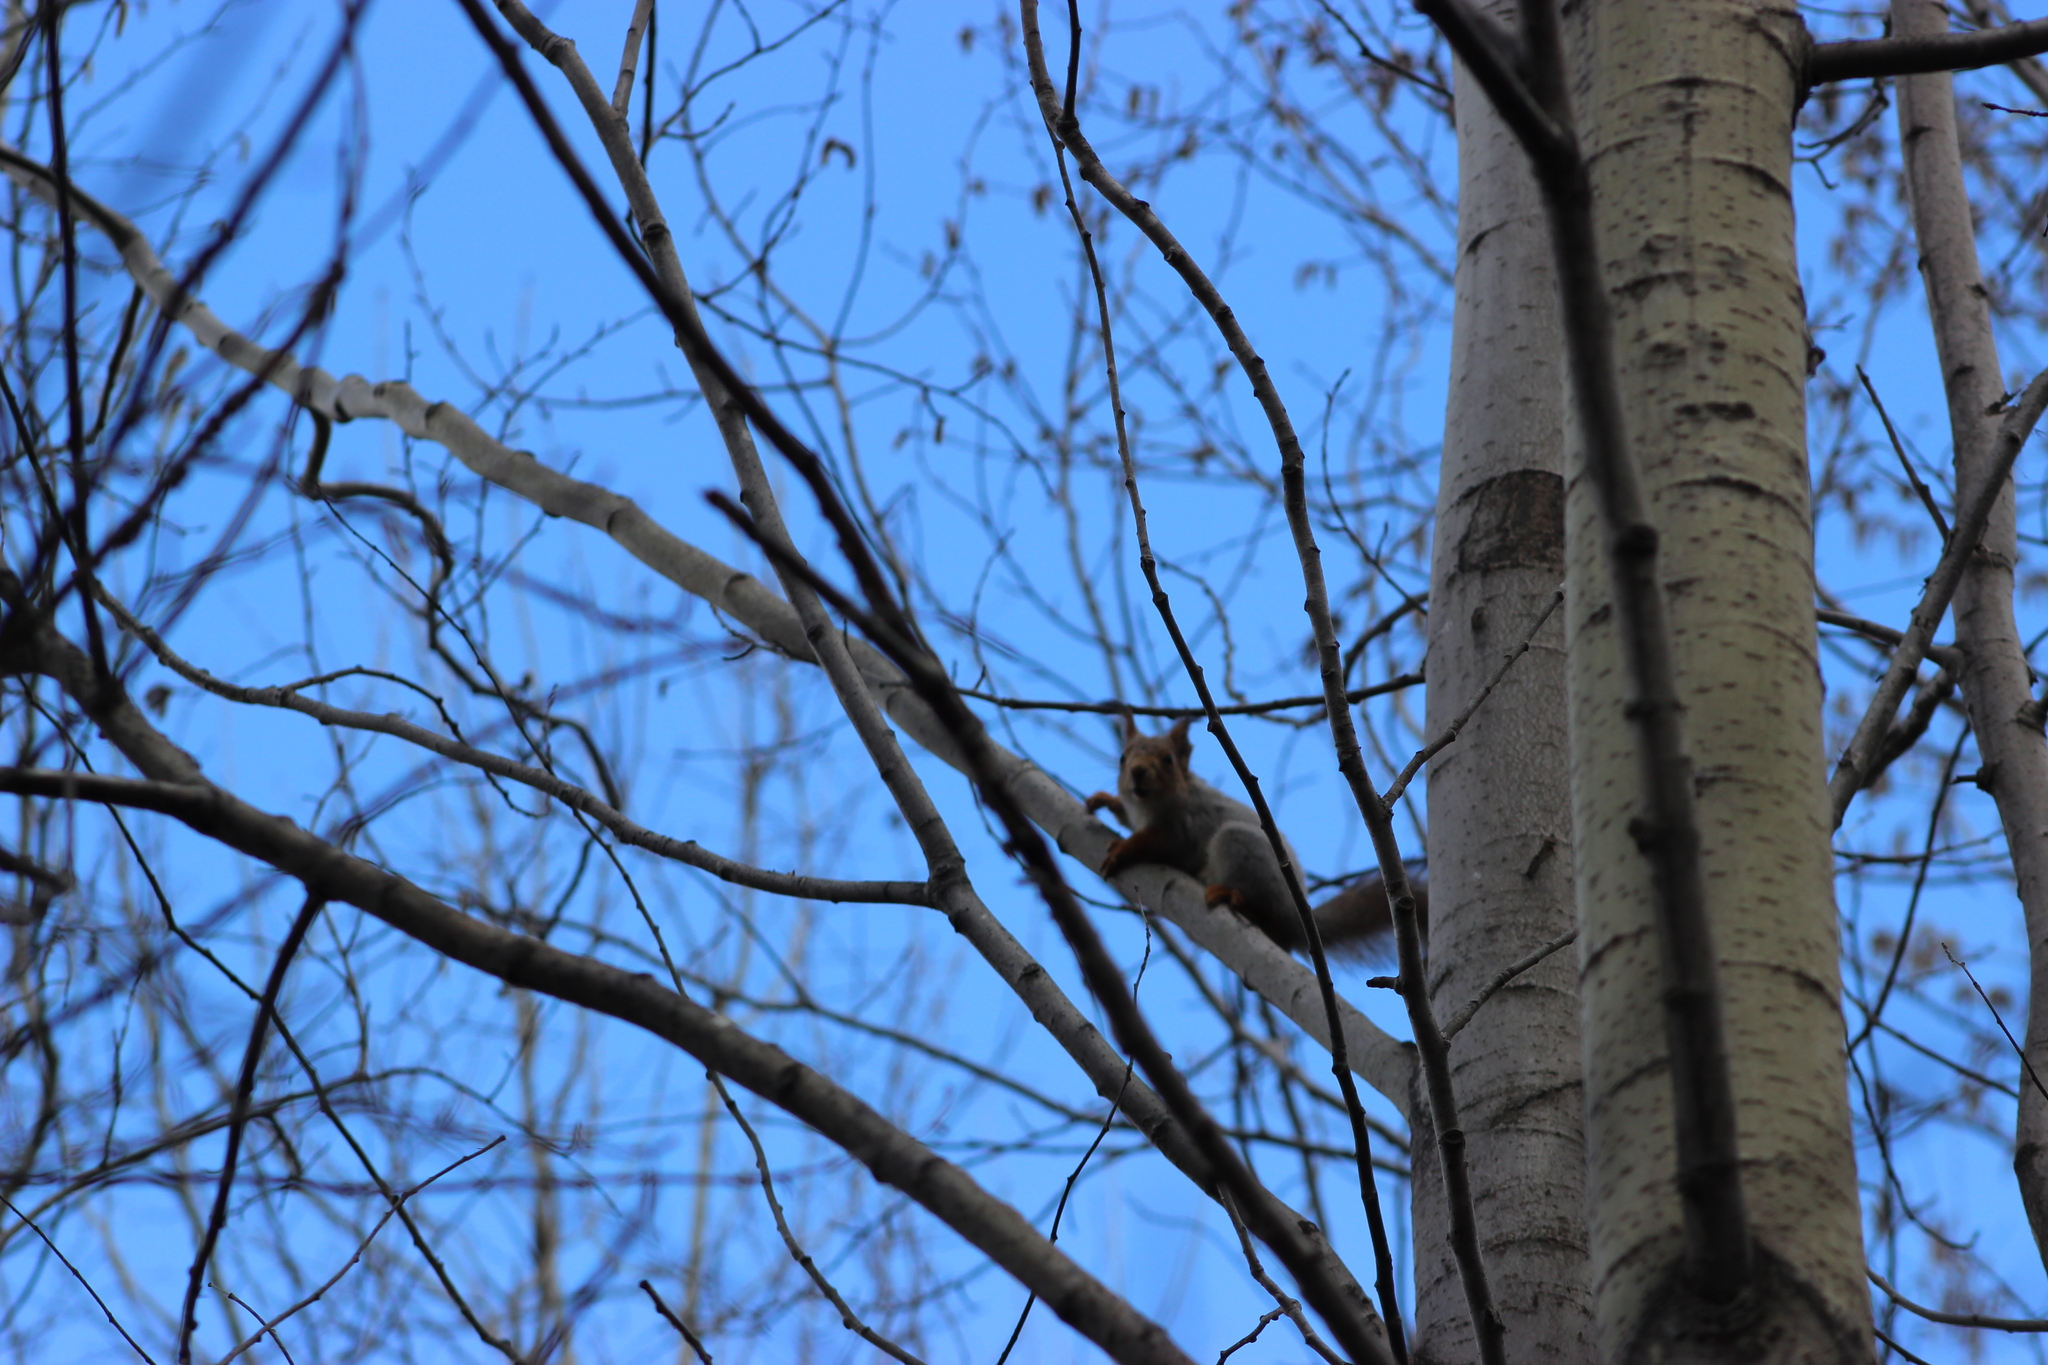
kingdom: Animalia
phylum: Chordata
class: Mammalia
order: Rodentia
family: Sciuridae
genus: Sciurus
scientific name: Sciurus vulgaris
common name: Eurasian red squirrel
